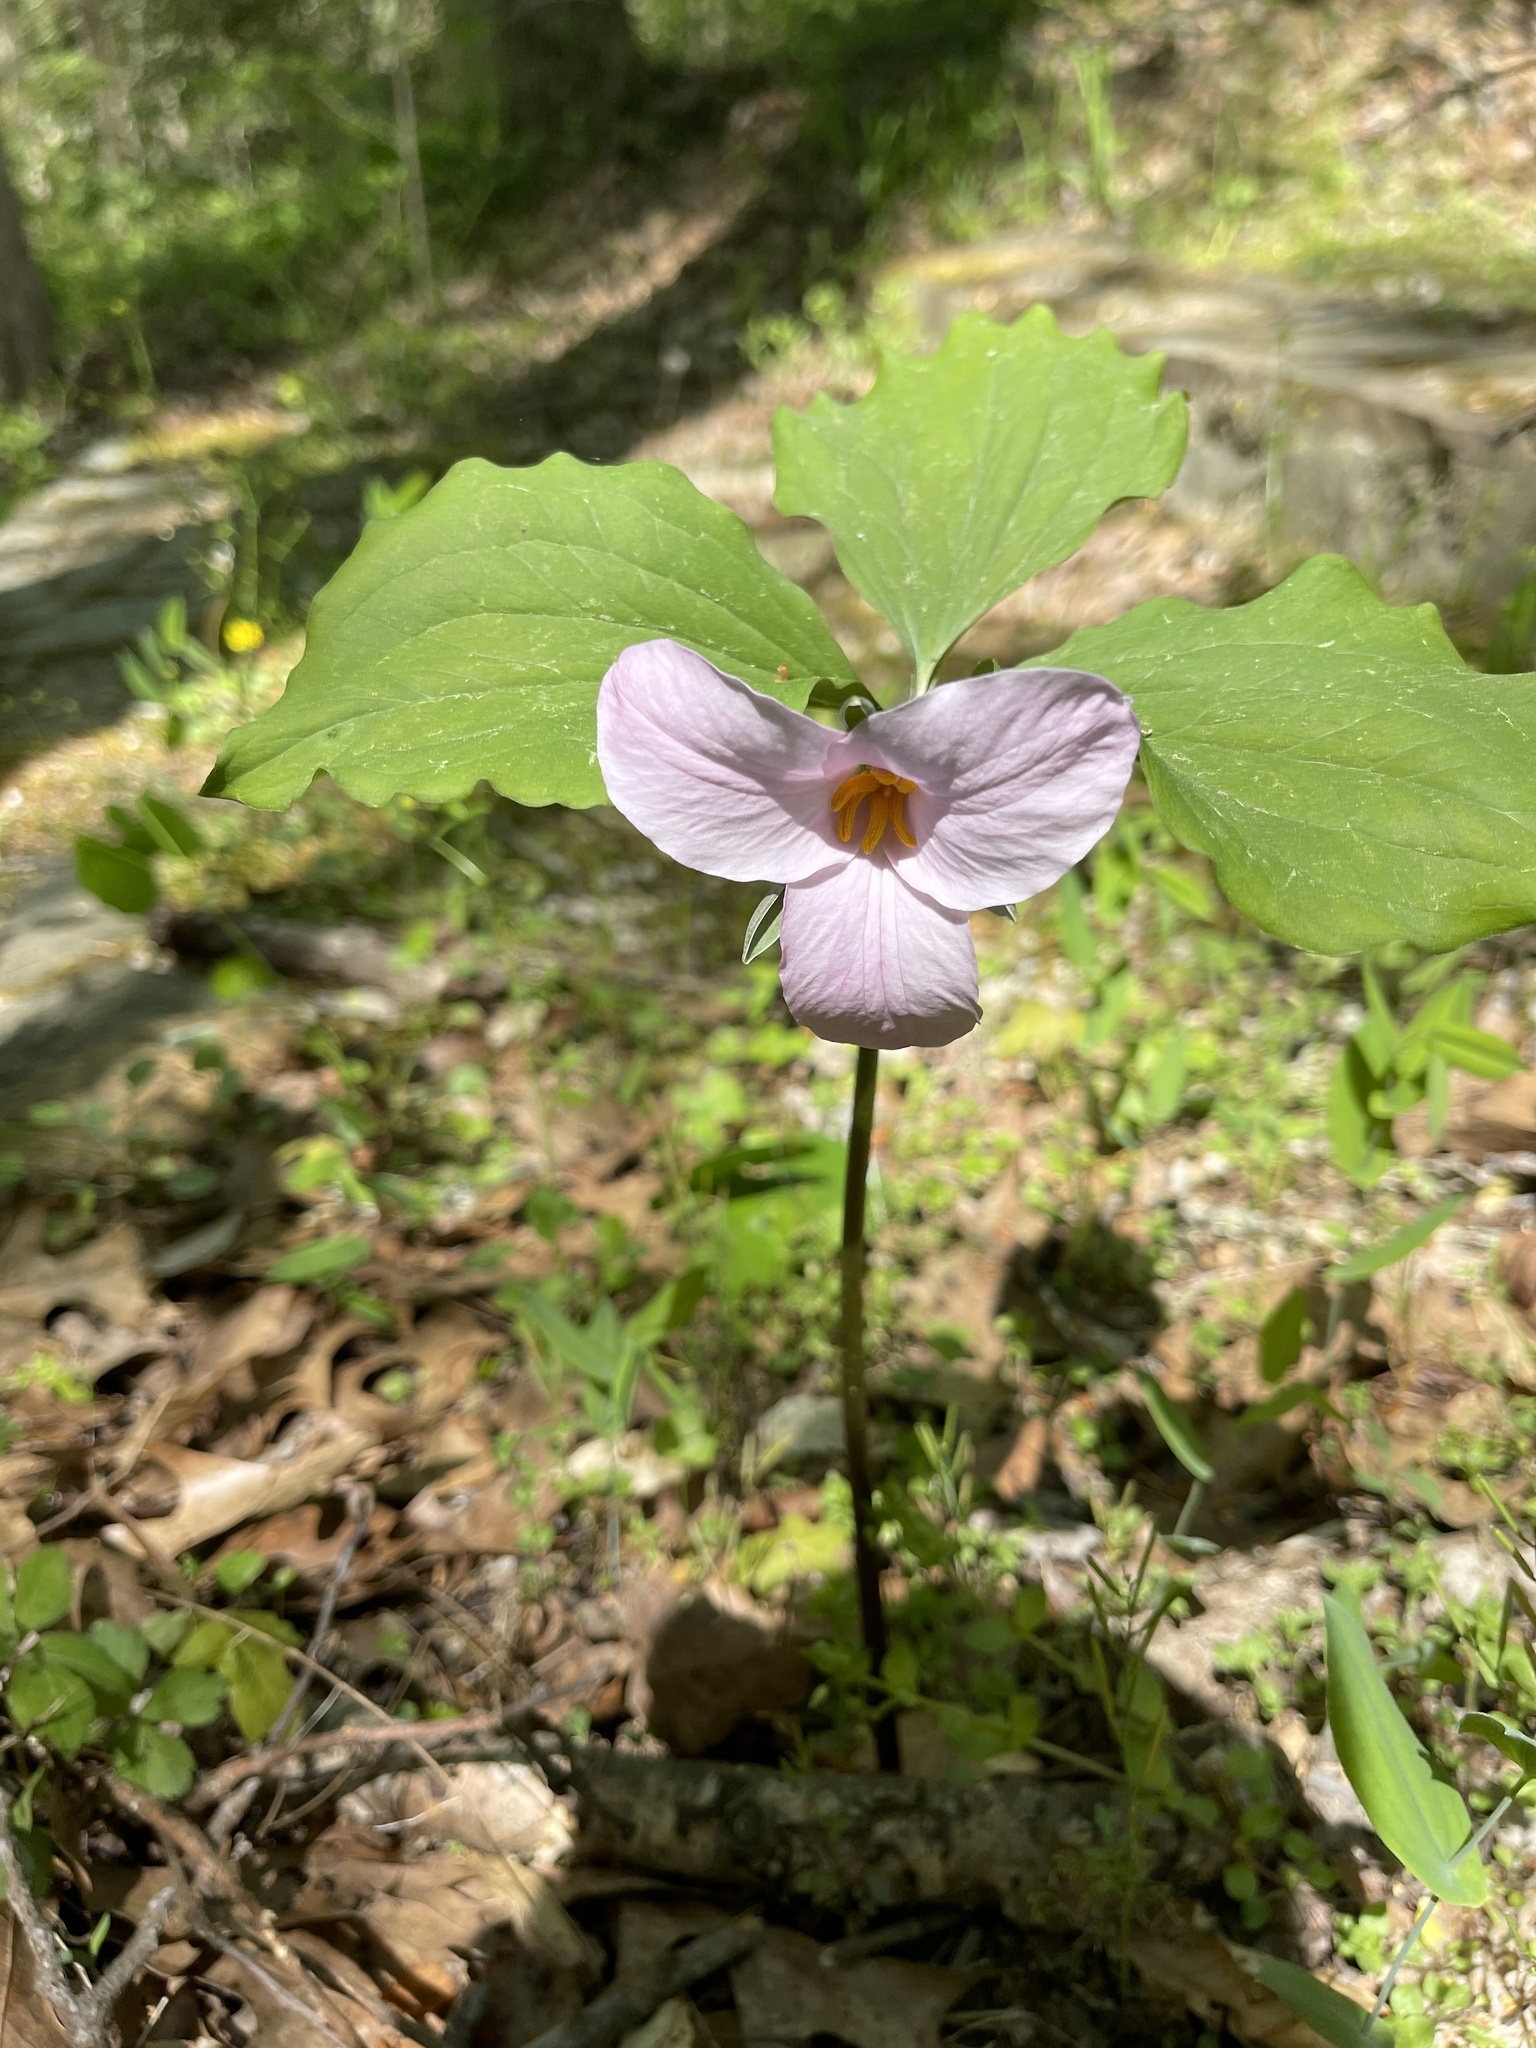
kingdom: Plantae
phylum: Tracheophyta
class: Liliopsida
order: Liliales
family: Melanthiaceae
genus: Trillium
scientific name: Trillium catesbaei
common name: Bashful trillium
